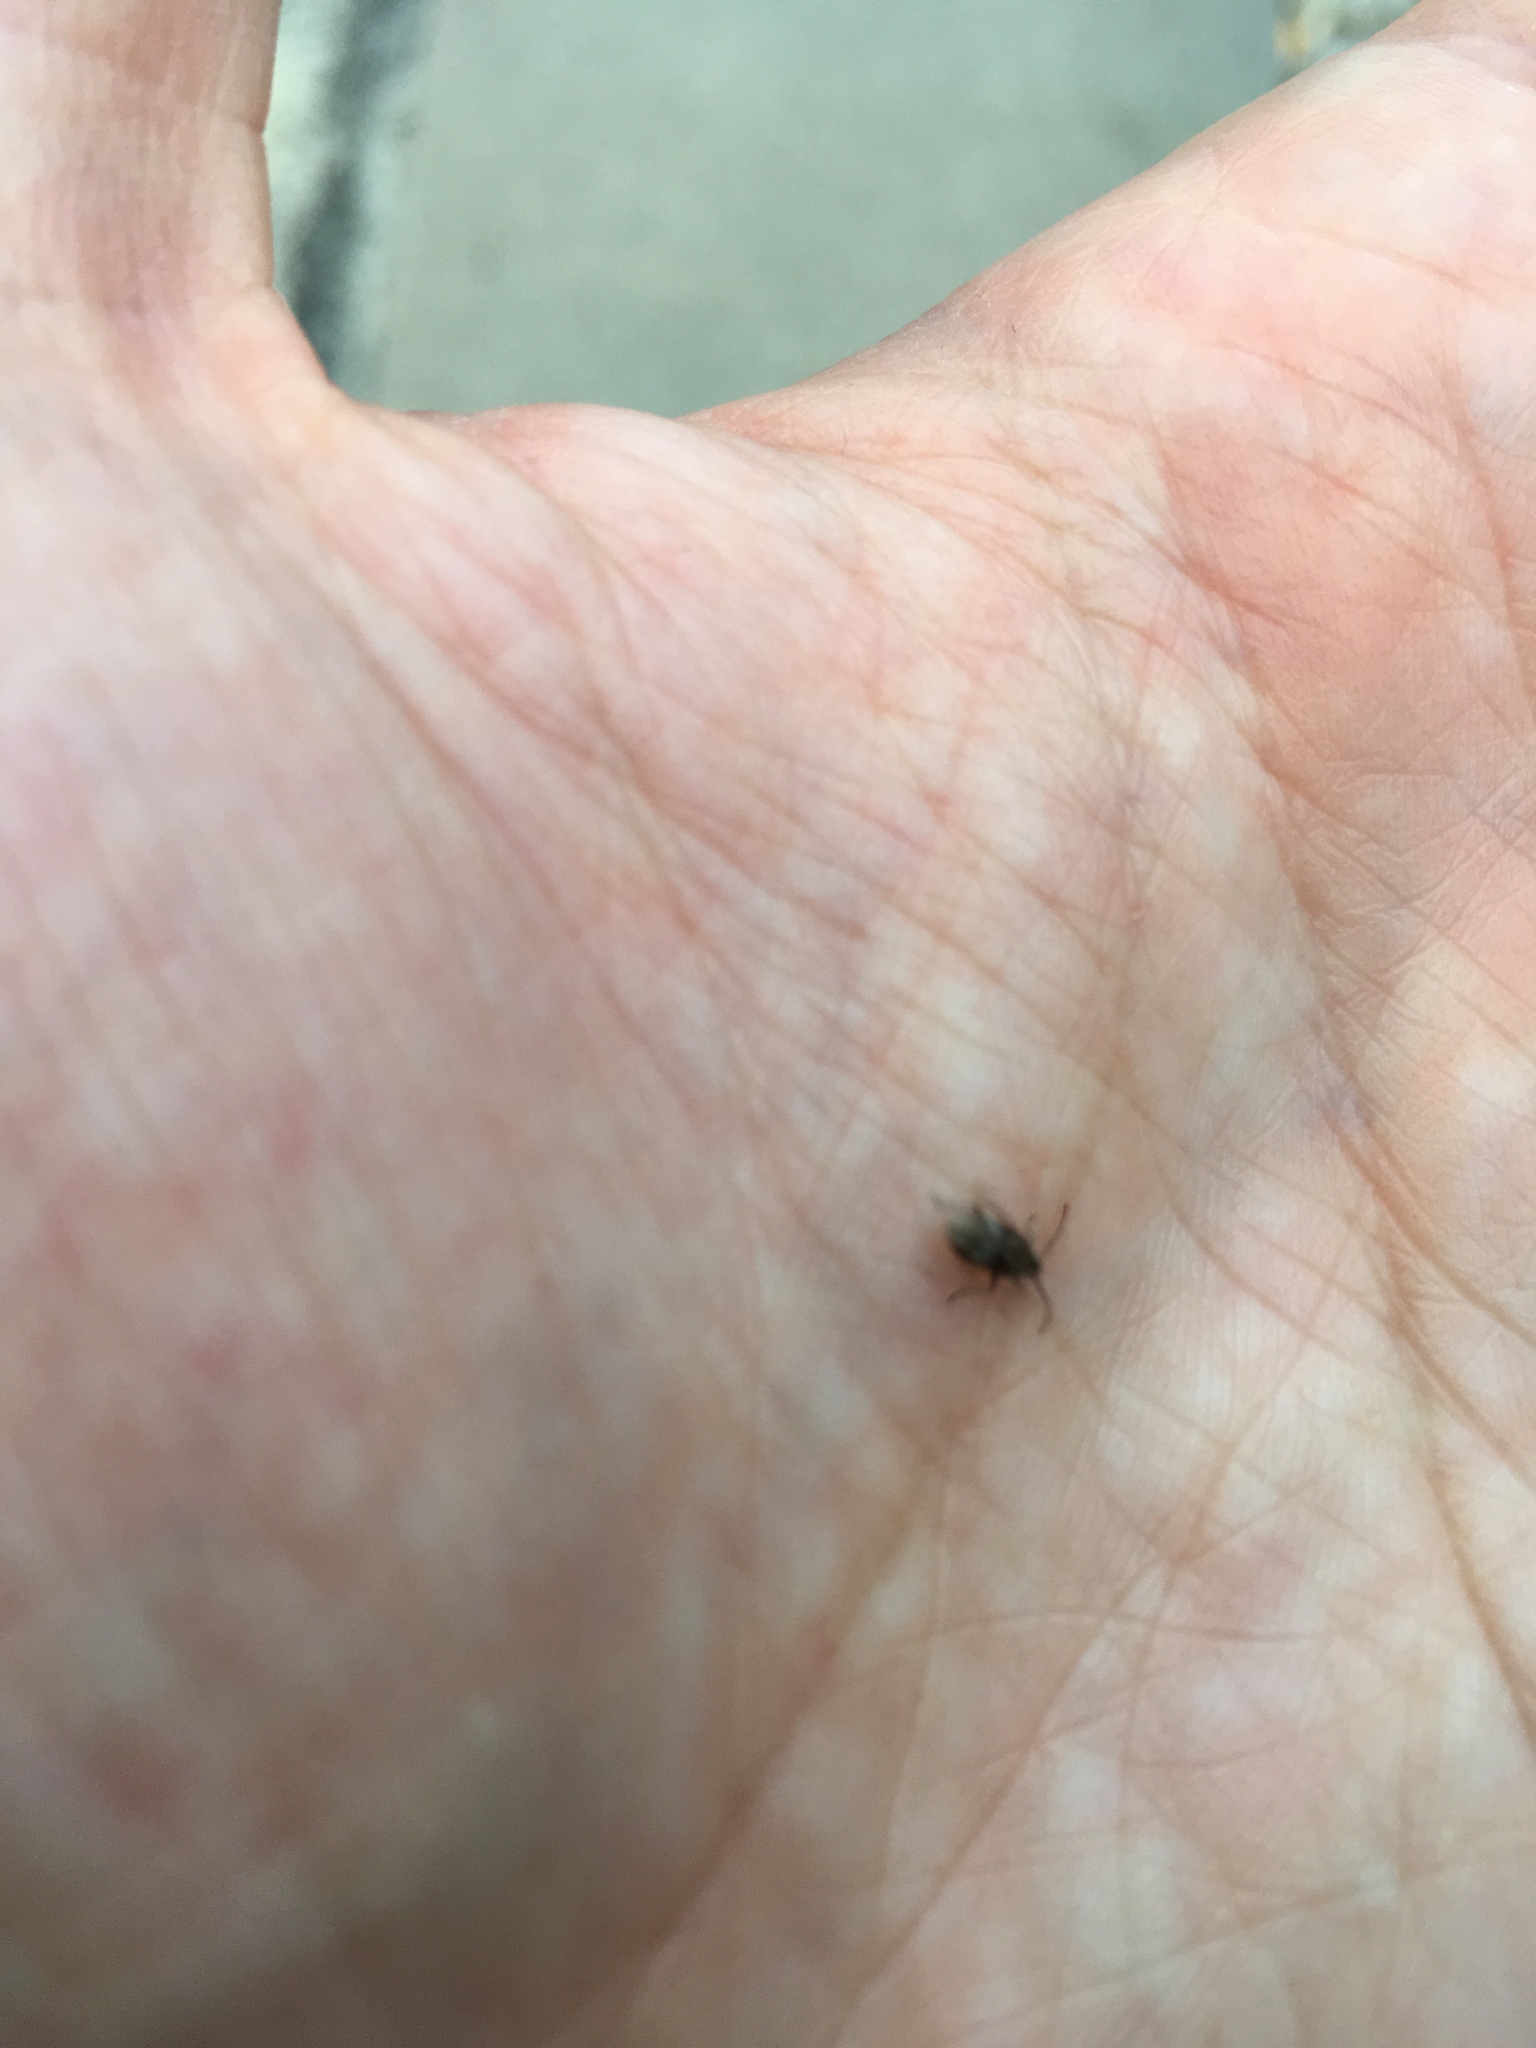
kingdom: Animalia
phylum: Arthropoda
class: Insecta
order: Coleoptera
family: Anobiidae
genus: Ptinomorphus
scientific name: Ptinomorphus imperialis
